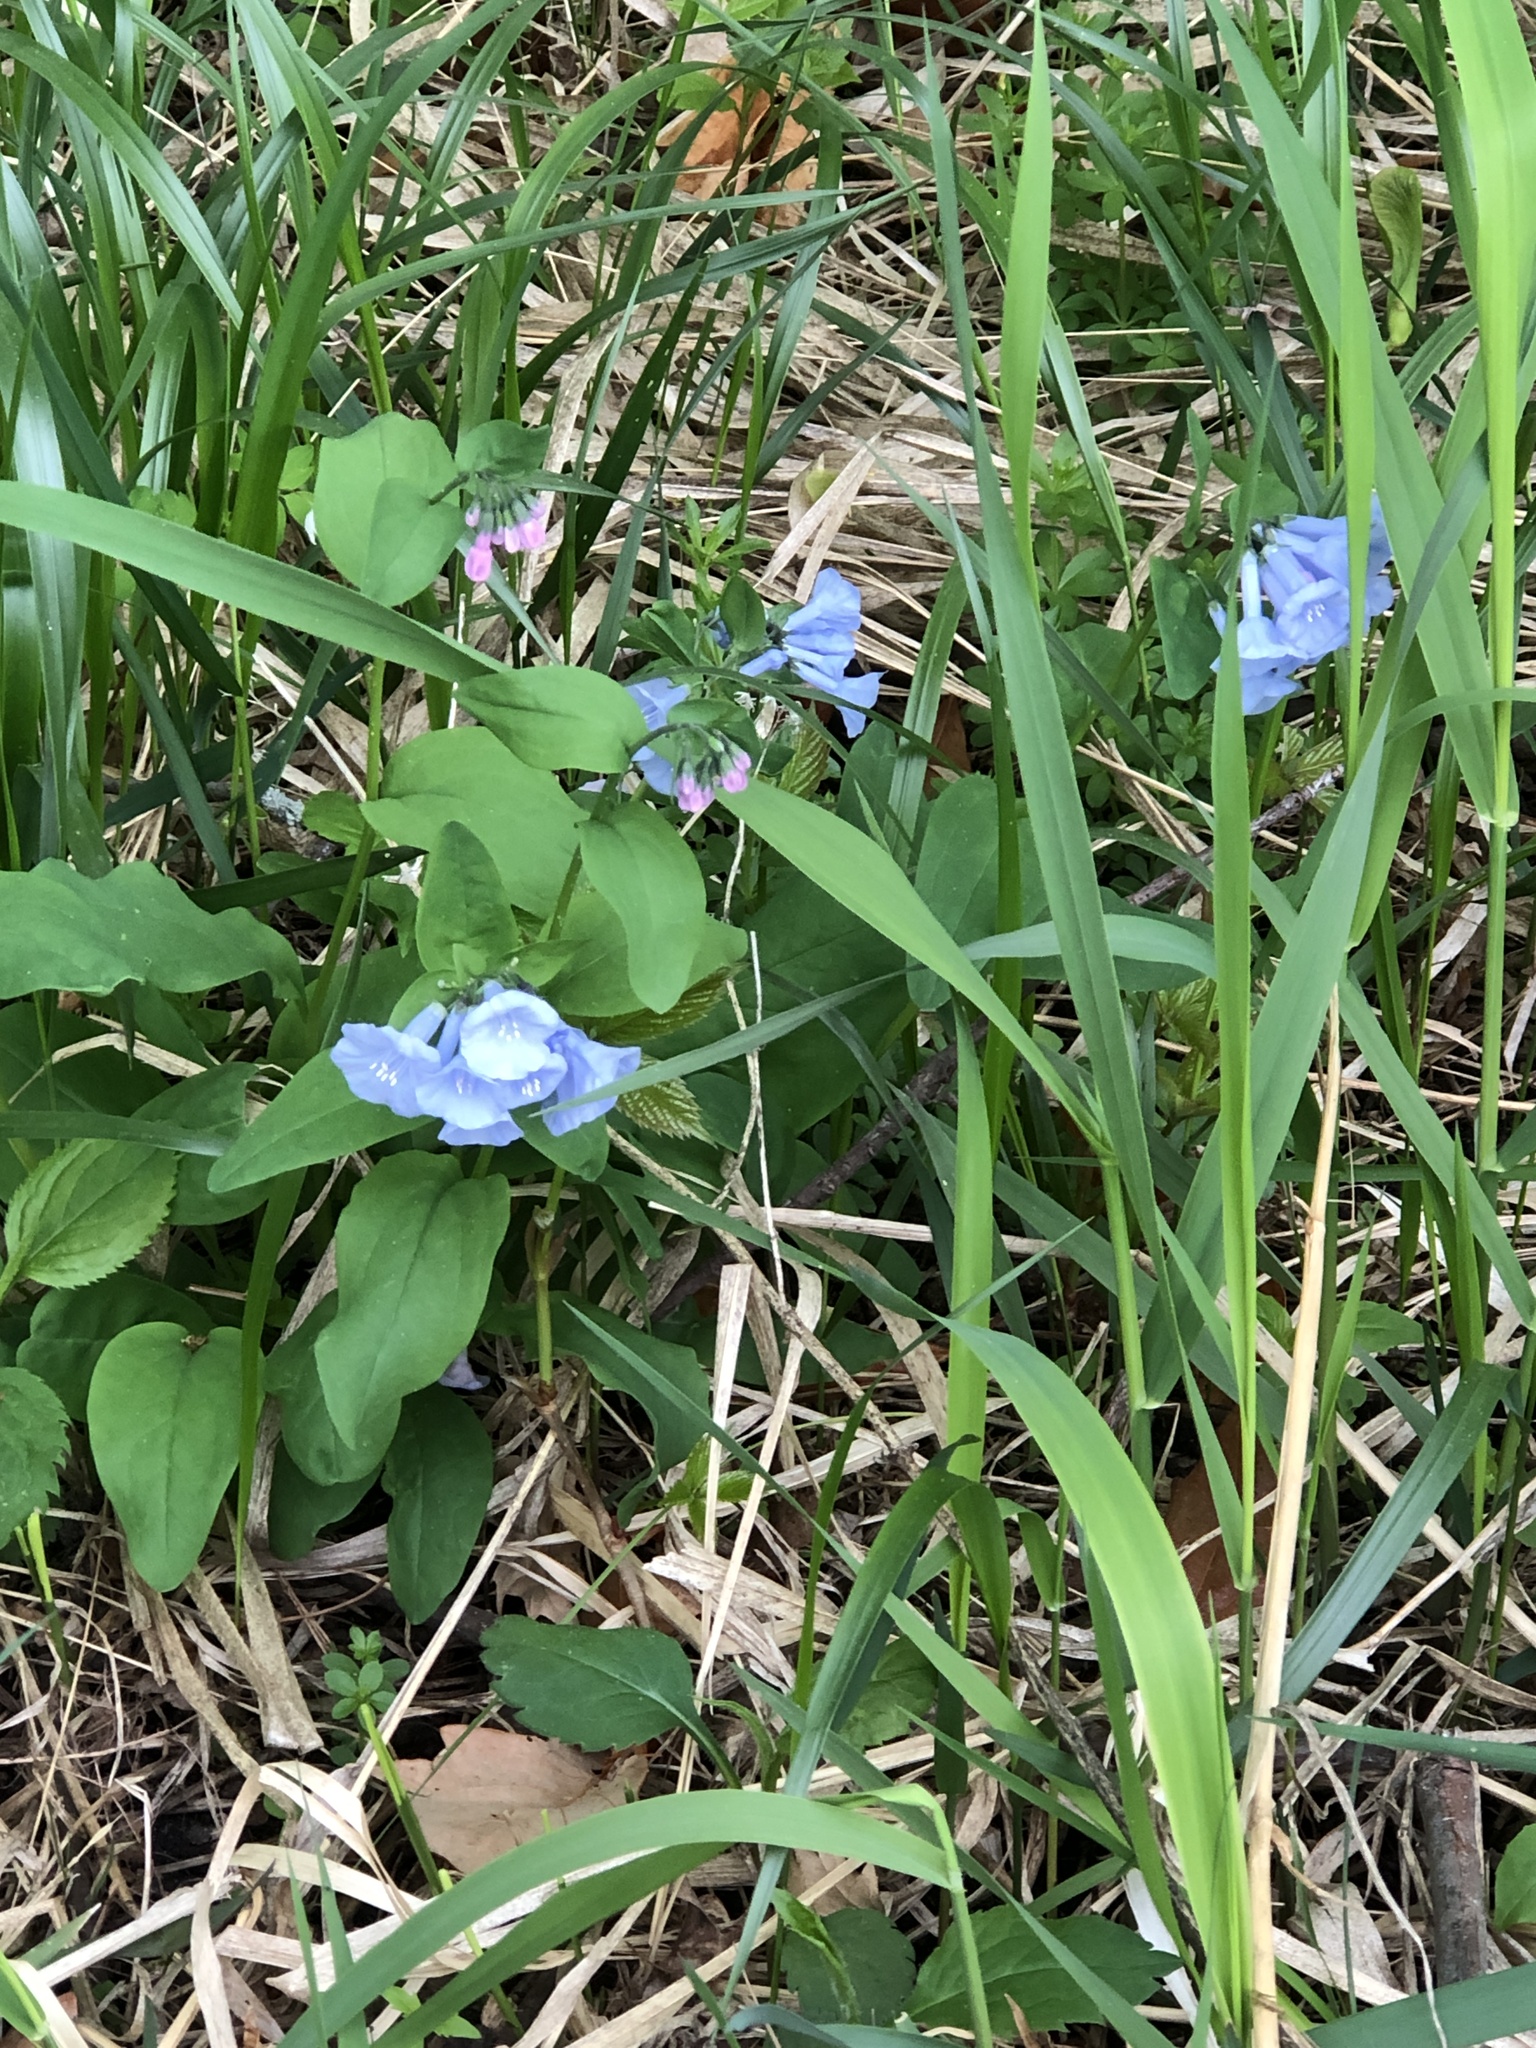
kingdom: Plantae
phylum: Tracheophyta
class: Magnoliopsida
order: Boraginales
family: Boraginaceae
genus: Mertensia
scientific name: Mertensia virginica
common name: Virginia bluebells
